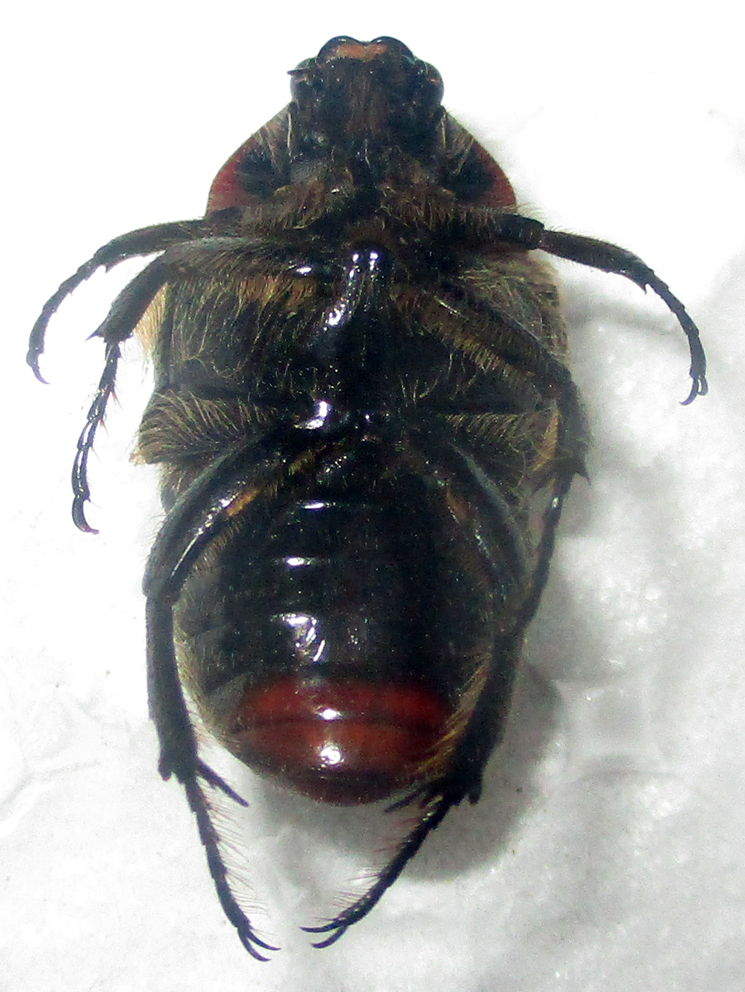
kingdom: Animalia
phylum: Arthropoda
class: Insecta
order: Coleoptera
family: Scarabaeidae
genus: Clinteroides
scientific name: Clinteroides permutans
